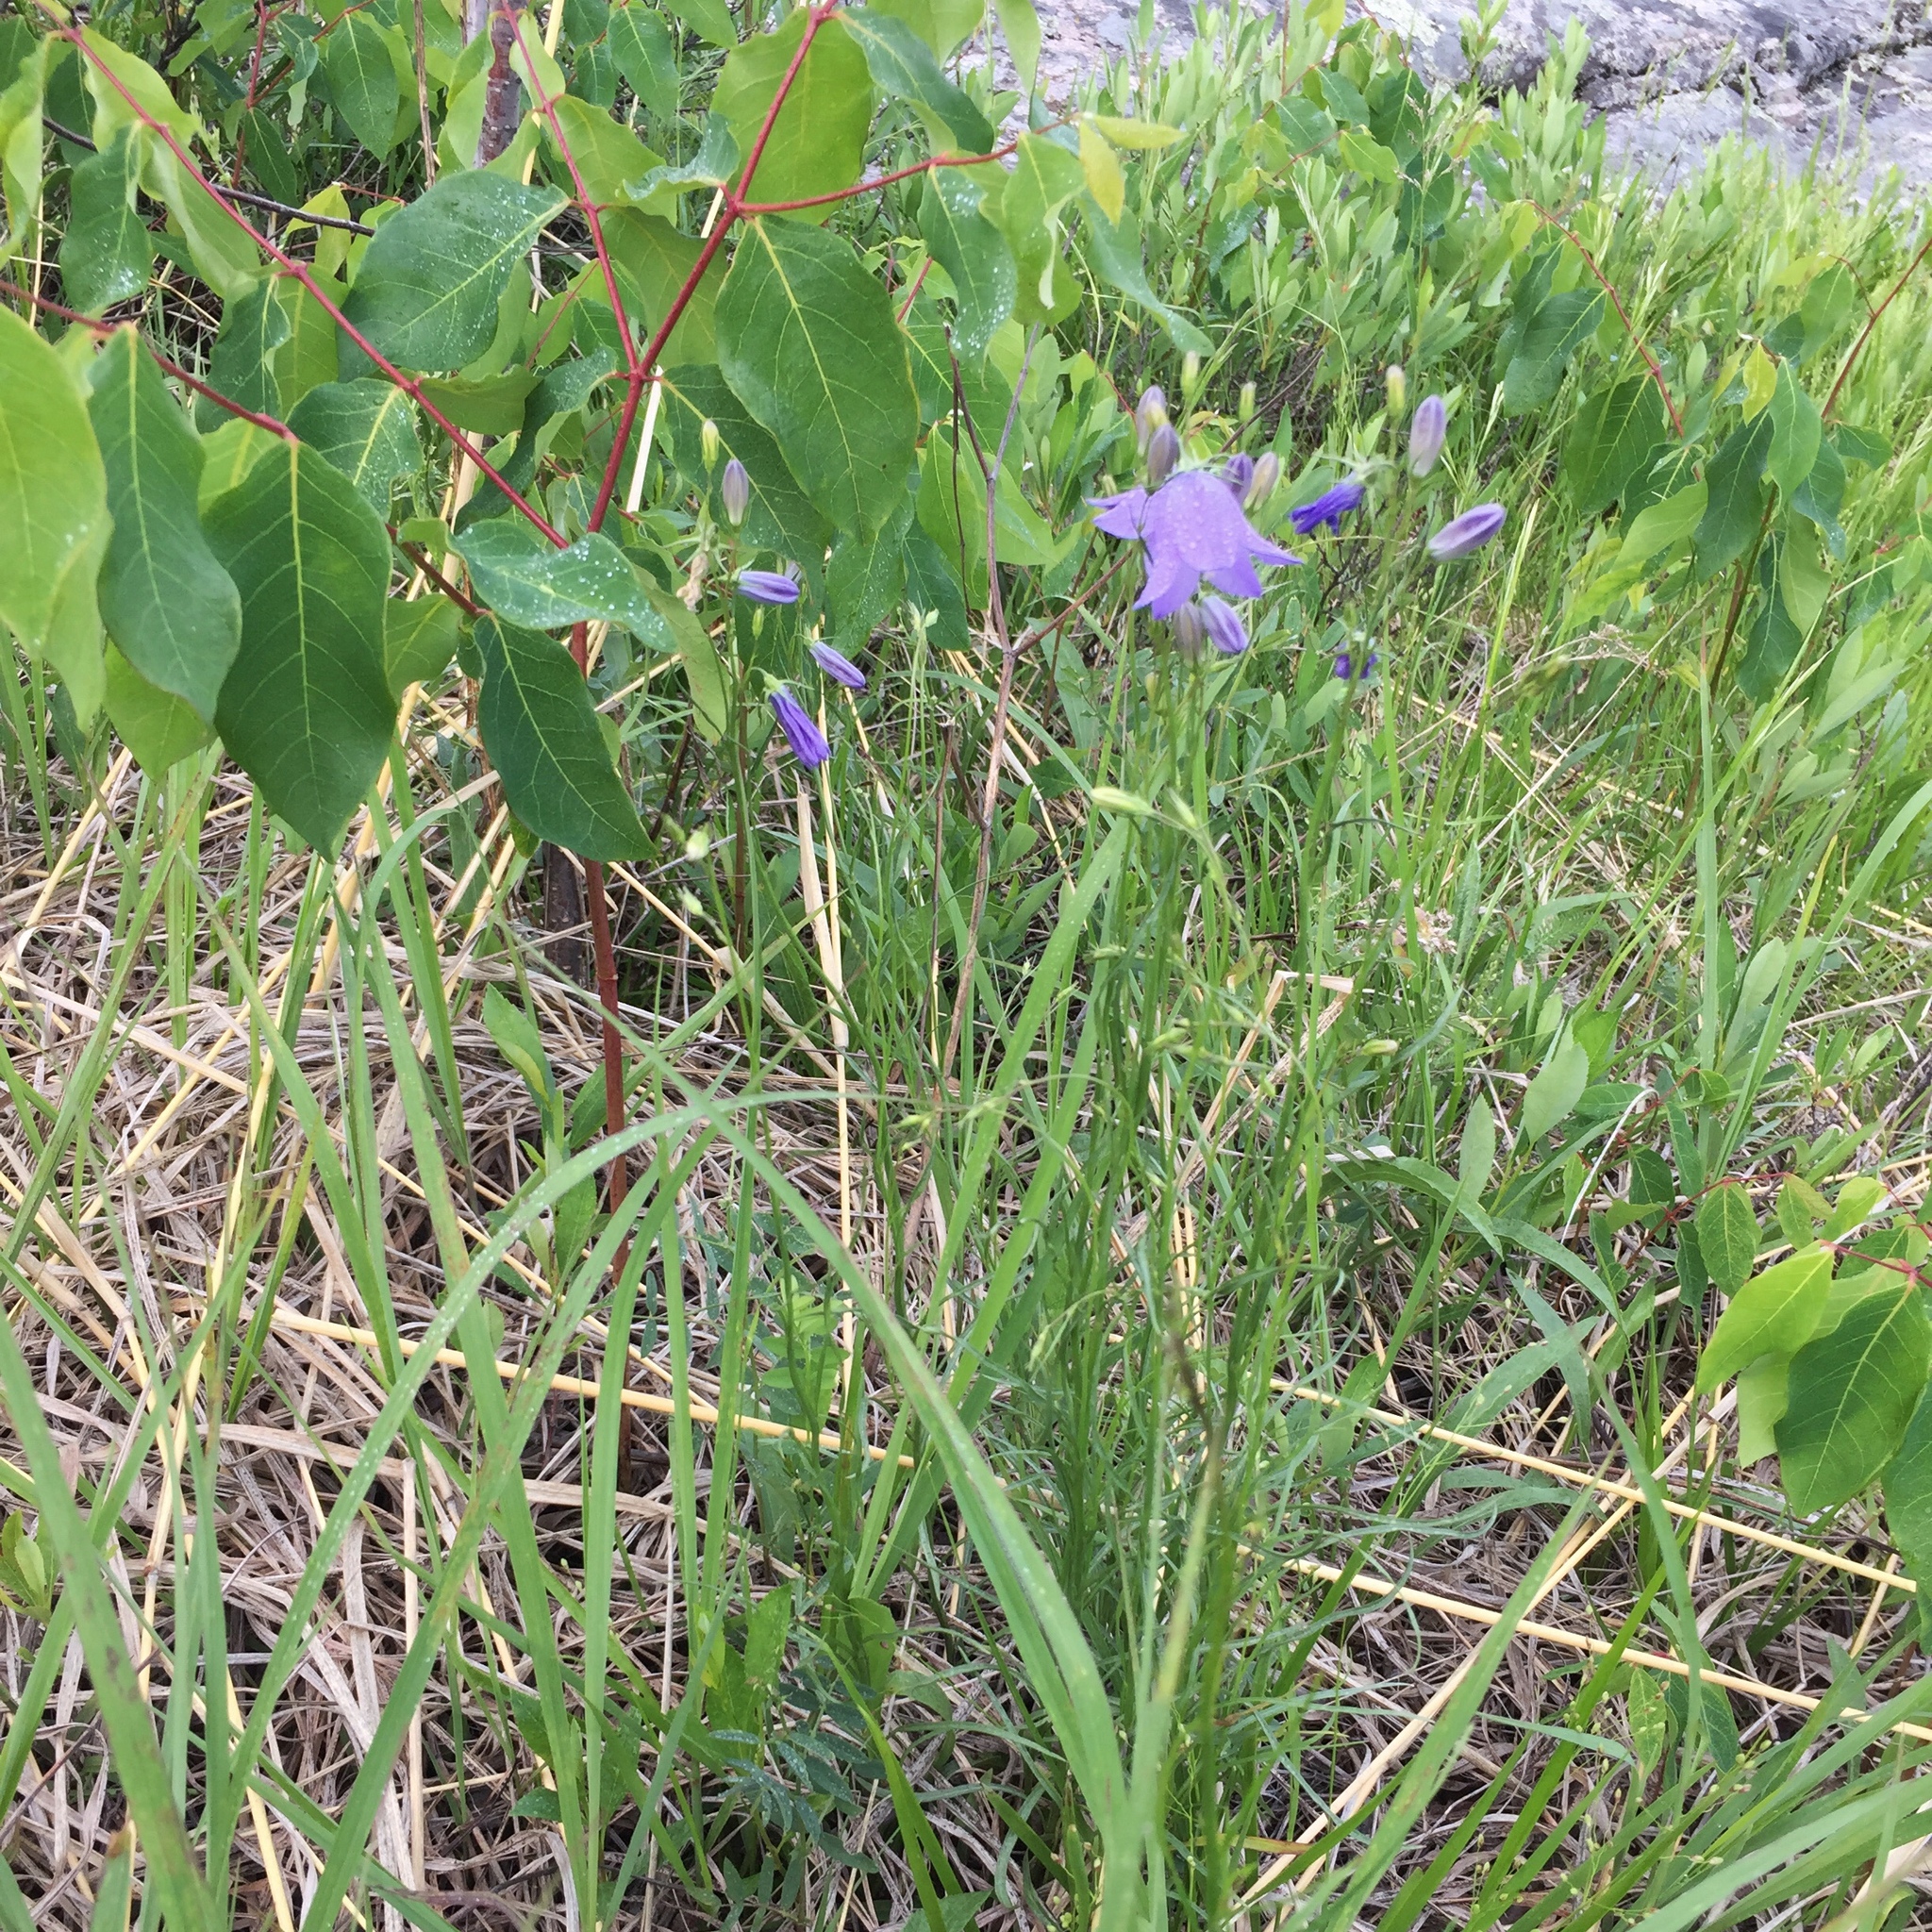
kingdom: Plantae
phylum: Tracheophyta
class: Magnoliopsida
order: Asterales
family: Campanulaceae
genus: Campanula
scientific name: Campanula petiolata
